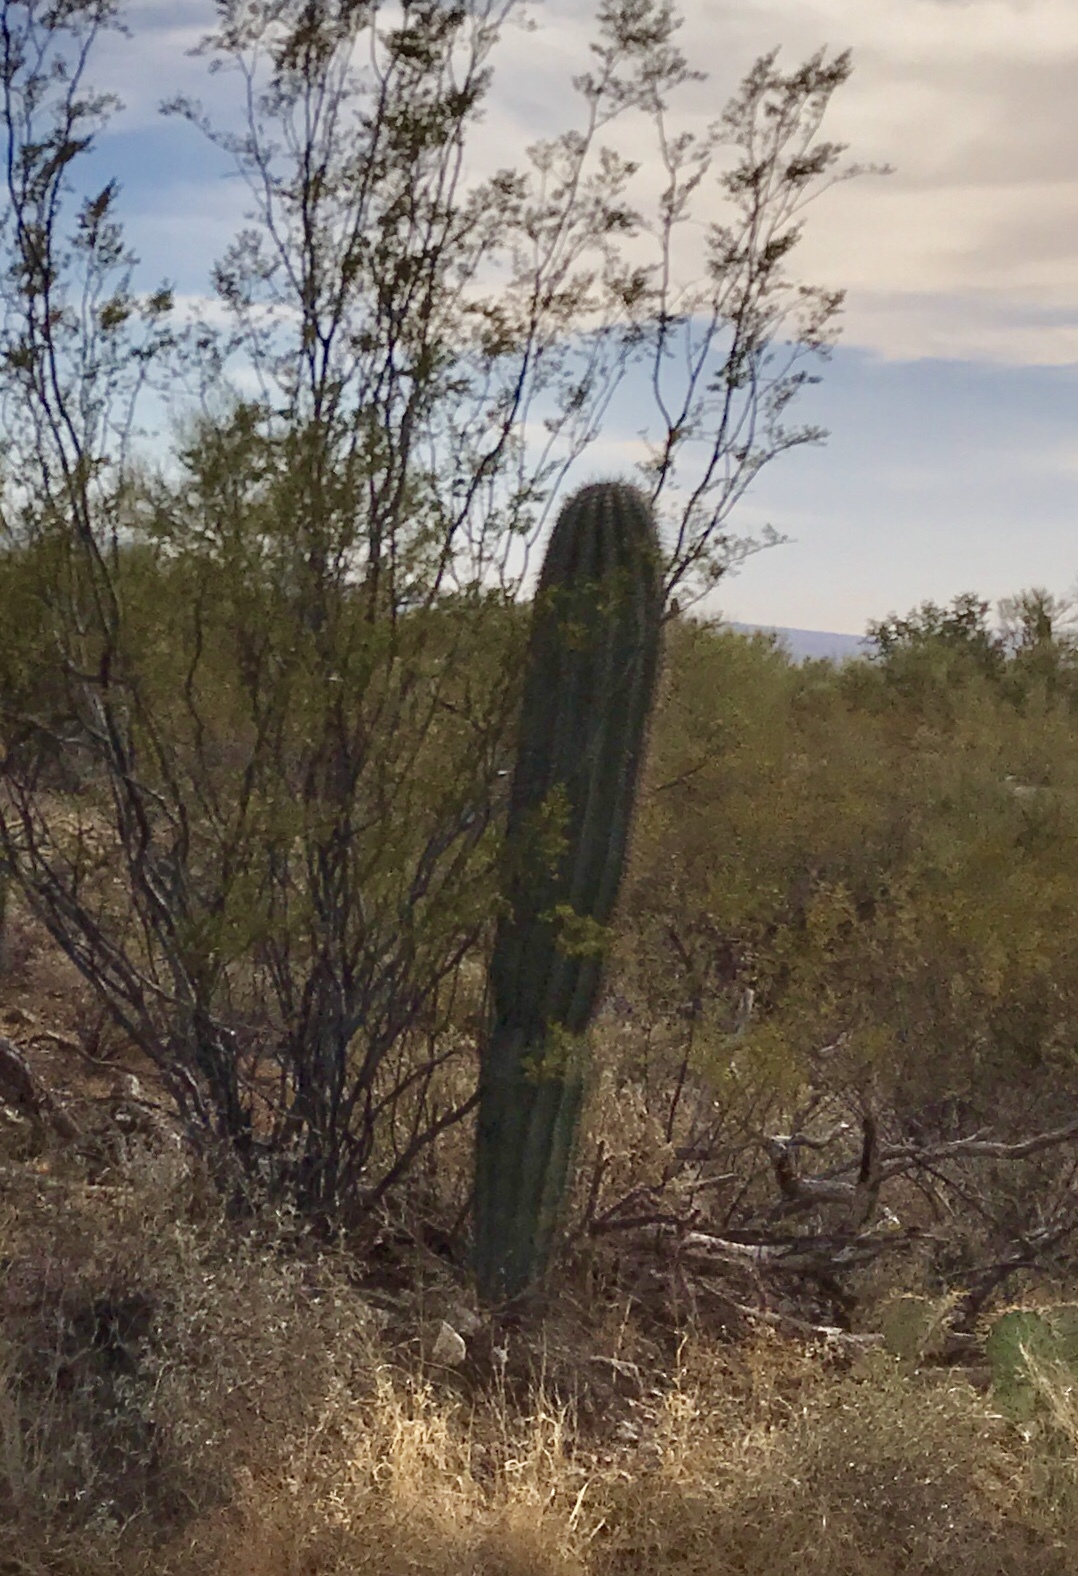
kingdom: Plantae
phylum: Tracheophyta
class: Magnoliopsida
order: Caryophyllales
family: Cactaceae
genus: Carnegiea
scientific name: Carnegiea gigantea
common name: Saguaro
